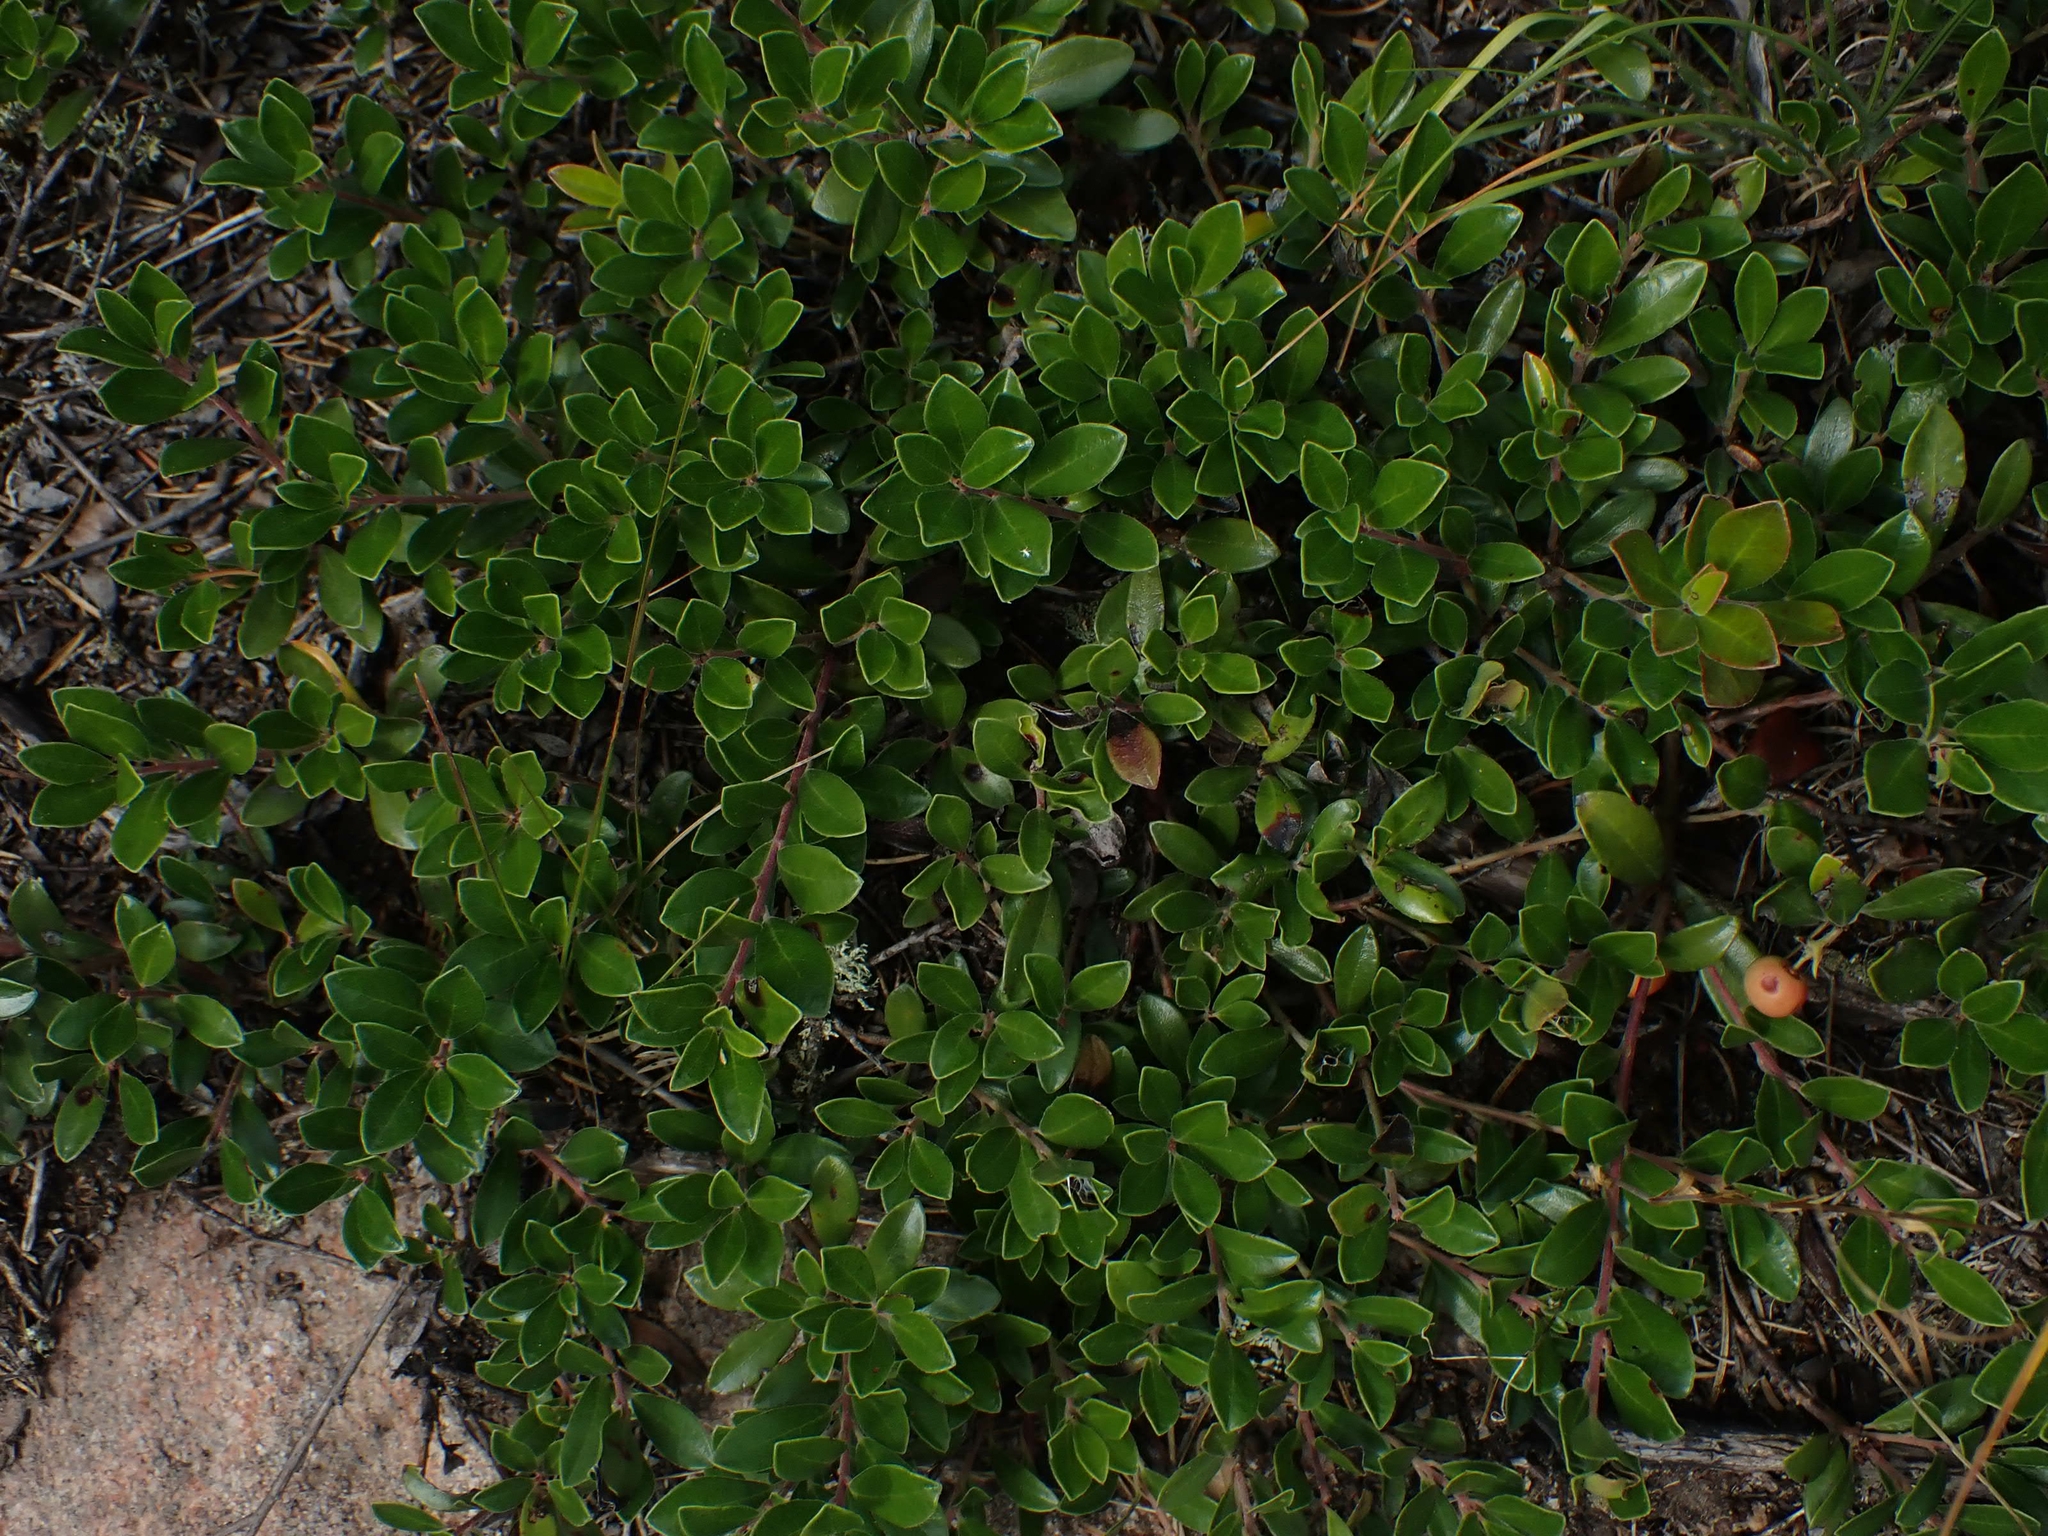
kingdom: Plantae
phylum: Tracheophyta
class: Magnoliopsida
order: Ericales
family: Ericaceae
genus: Arctostaphylos
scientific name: Arctostaphylos uva-ursi
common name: Bearberry
